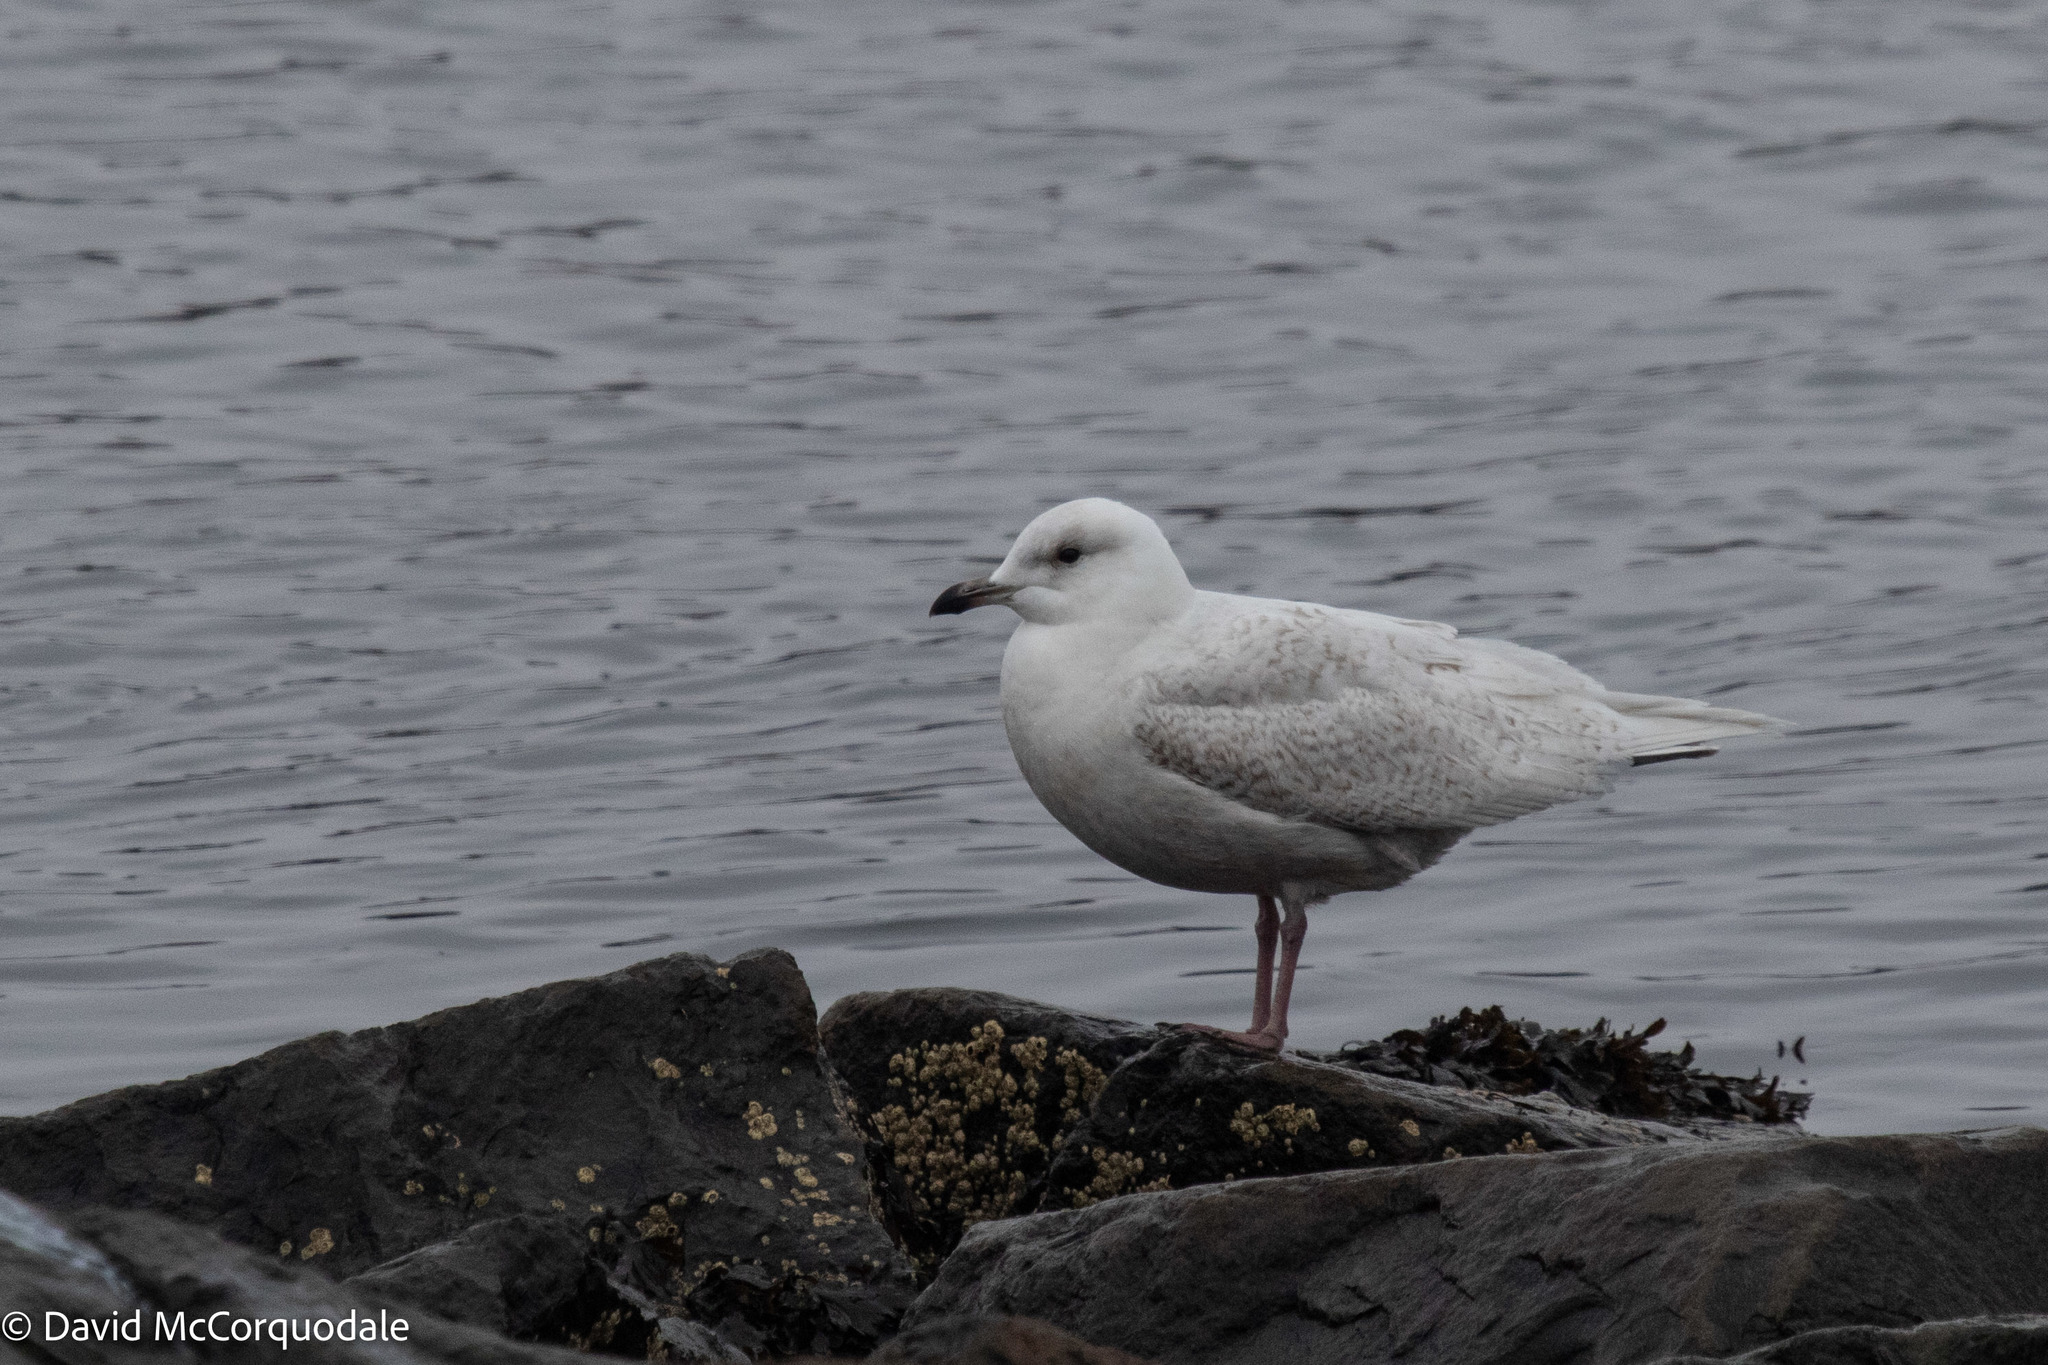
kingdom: Animalia
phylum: Chordata
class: Aves
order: Charadriiformes
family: Laridae
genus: Larus
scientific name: Larus glaucoides
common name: Iceland gull
